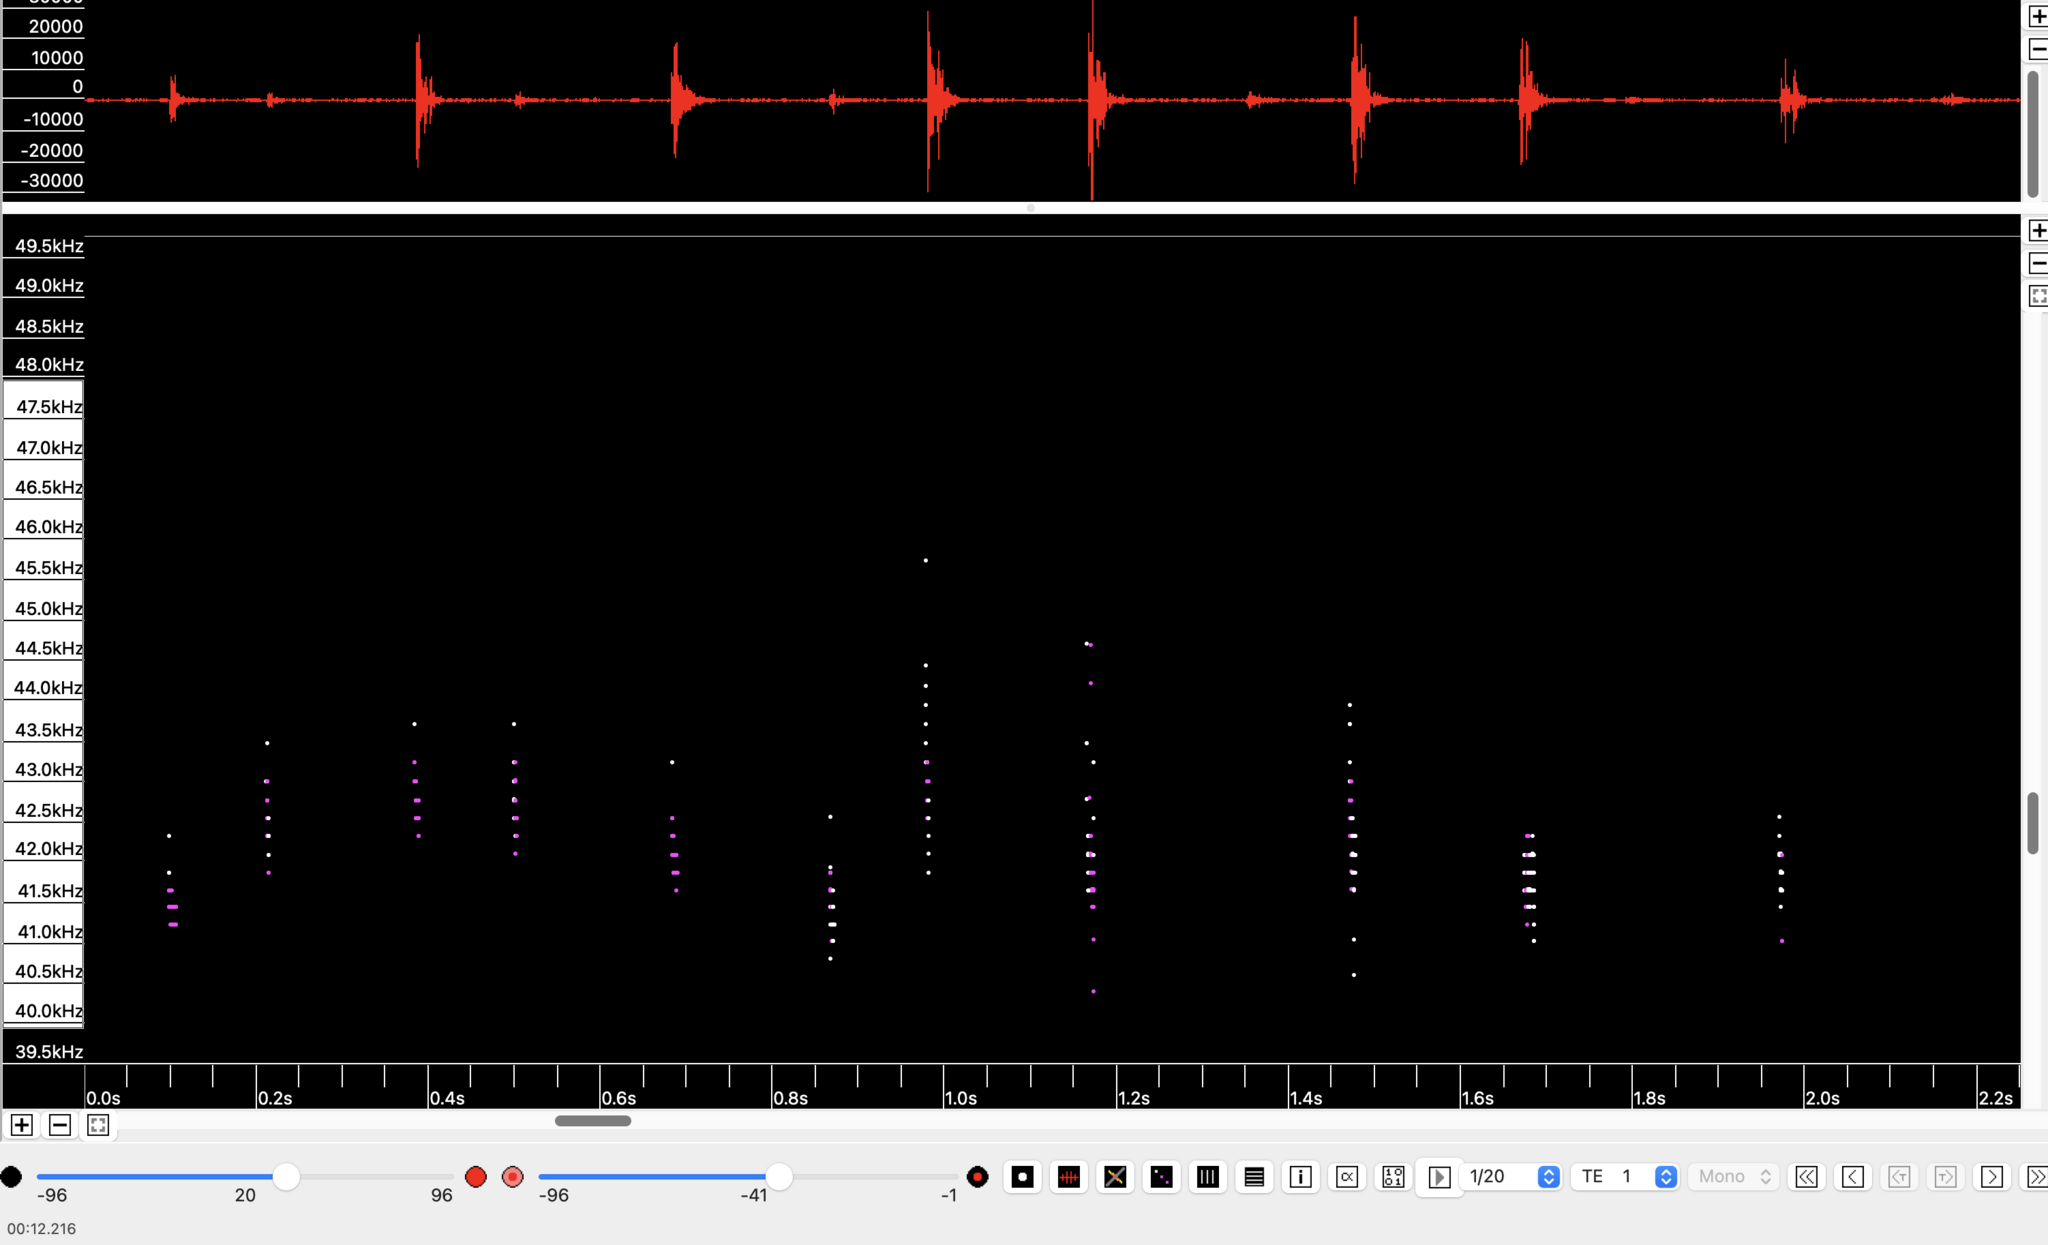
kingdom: Animalia
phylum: Chordata
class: Mammalia
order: Chiroptera
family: Vespertilionidae
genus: Pipistrellus
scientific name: Pipistrellus pipistrellus
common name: Common pipistrelle
